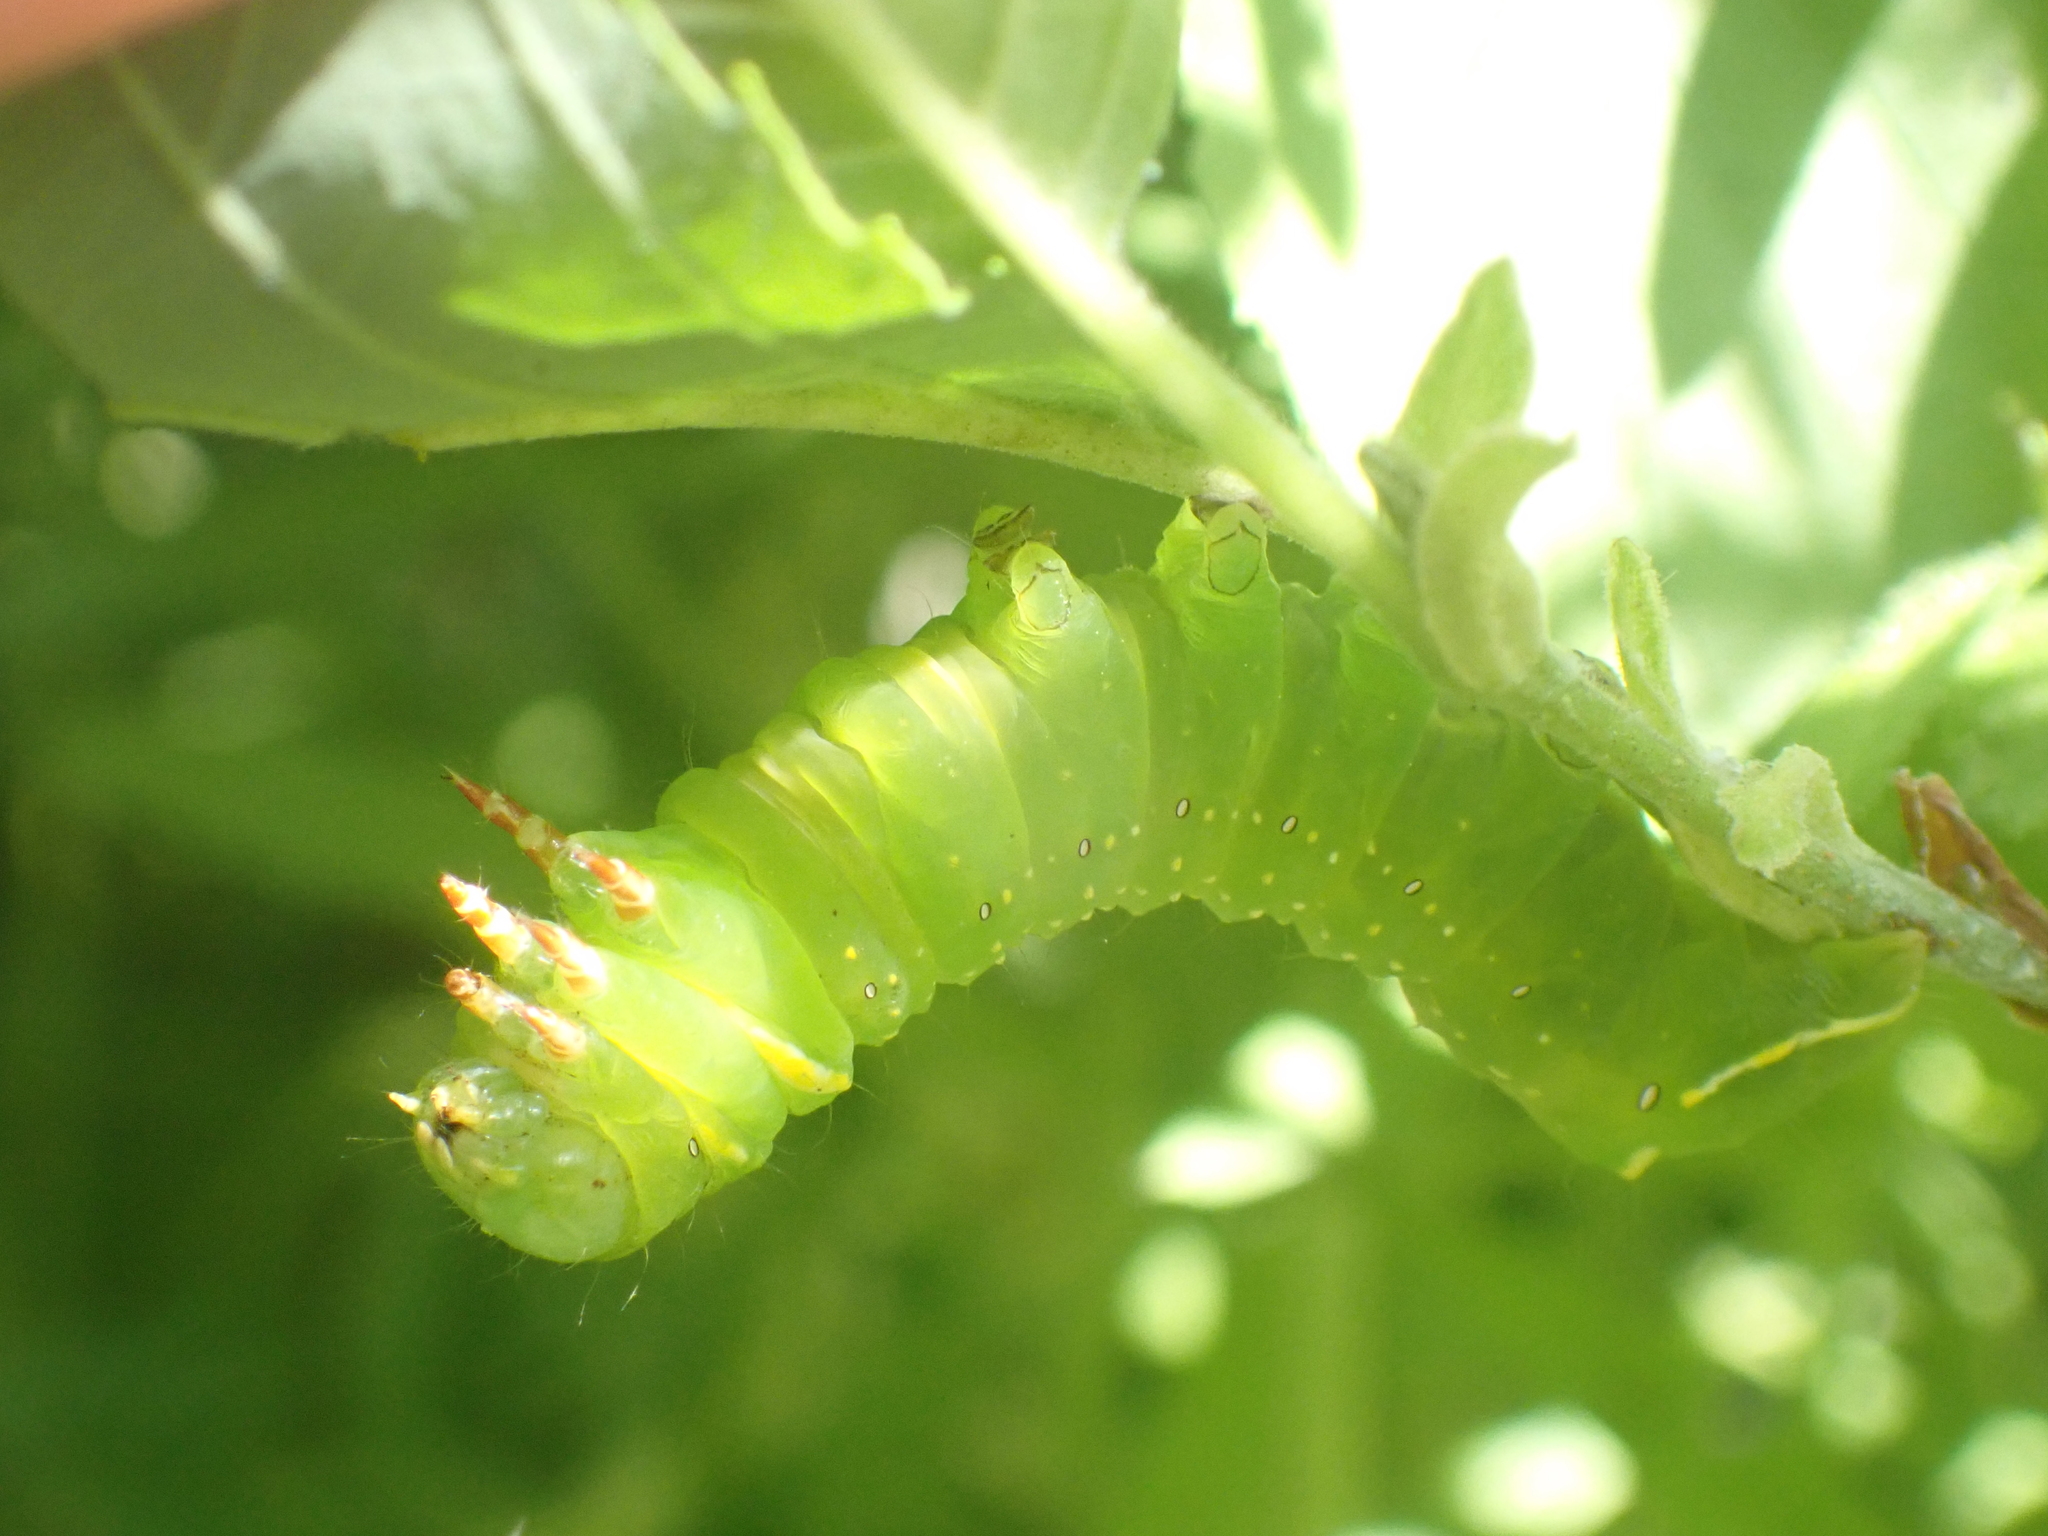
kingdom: Animalia
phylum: Arthropoda
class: Insecta
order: Lepidoptera
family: Noctuidae
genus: Brachionycha
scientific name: Brachionycha nubeculosa
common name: Rannoch sprawler
